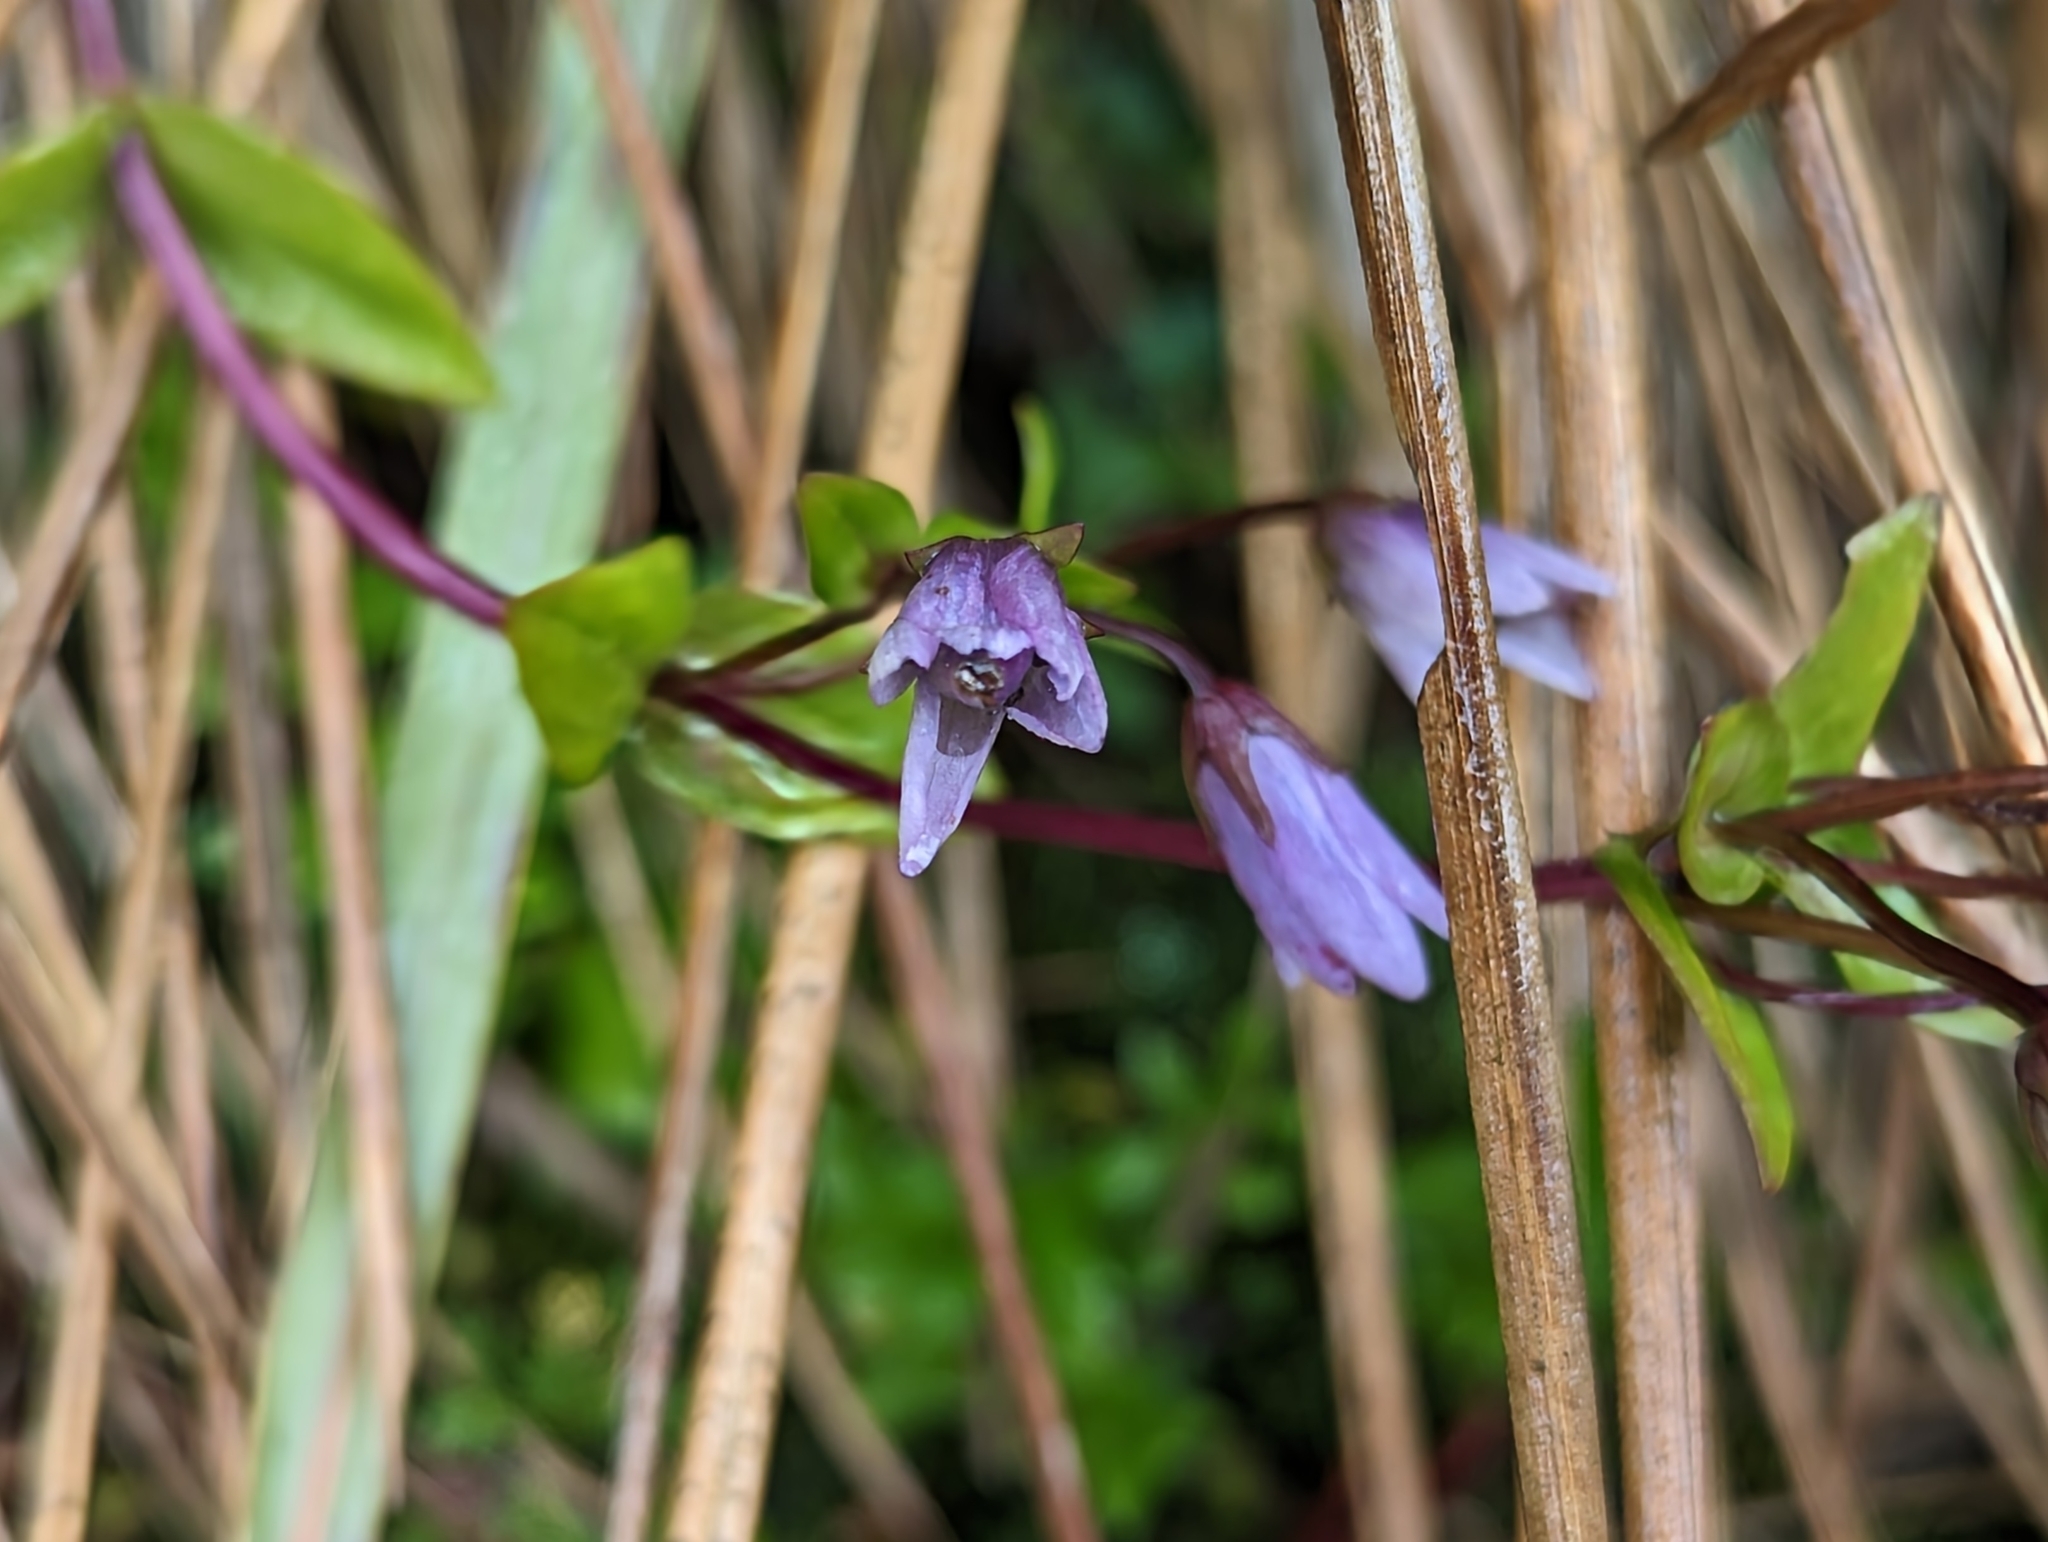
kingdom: Plantae
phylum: Tracheophyta
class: Magnoliopsida
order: Gentianales
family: Gentianaceae
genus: Gentianella
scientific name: Gentianella rapunculoides
